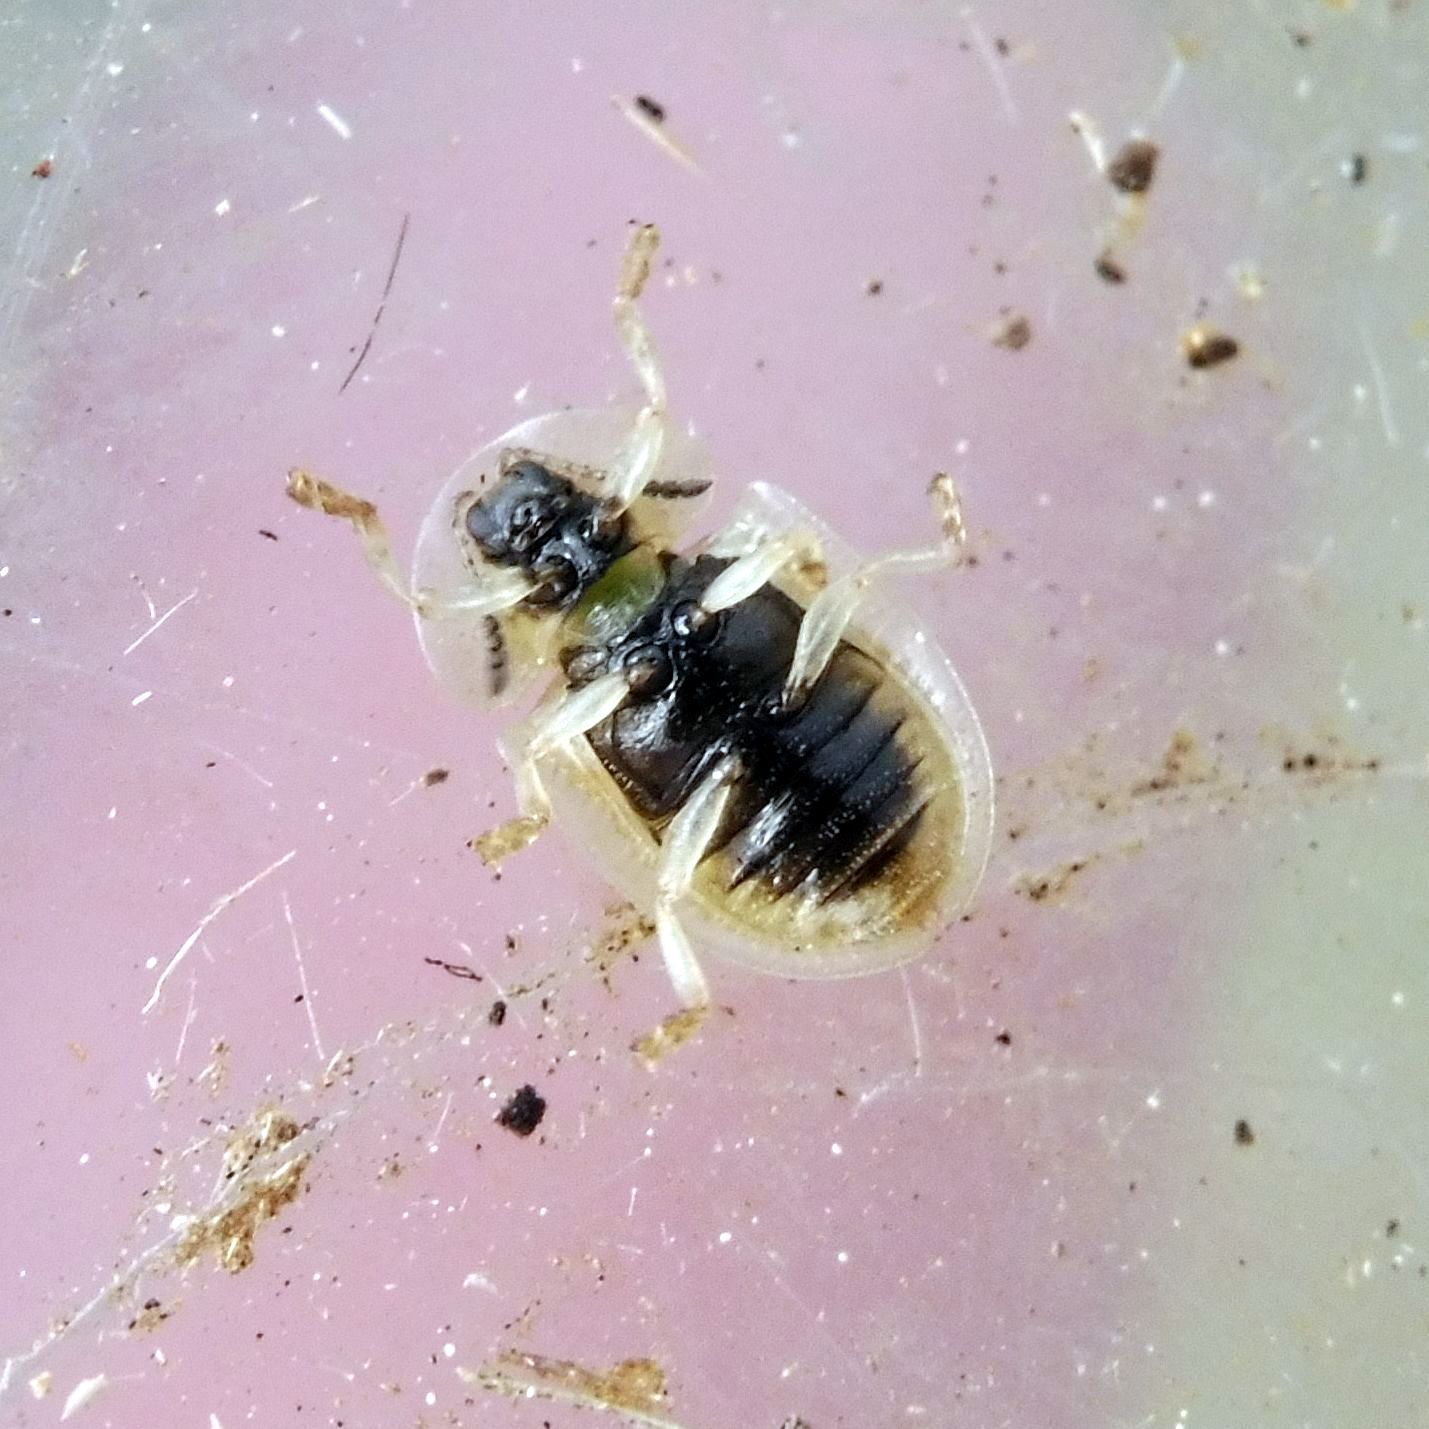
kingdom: Animalia
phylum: Arthropoda
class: Insecta
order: Coleoptera
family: Chrysomelidae
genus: Cassida
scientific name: Cassida flaveola
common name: Pale tortoise beetle
